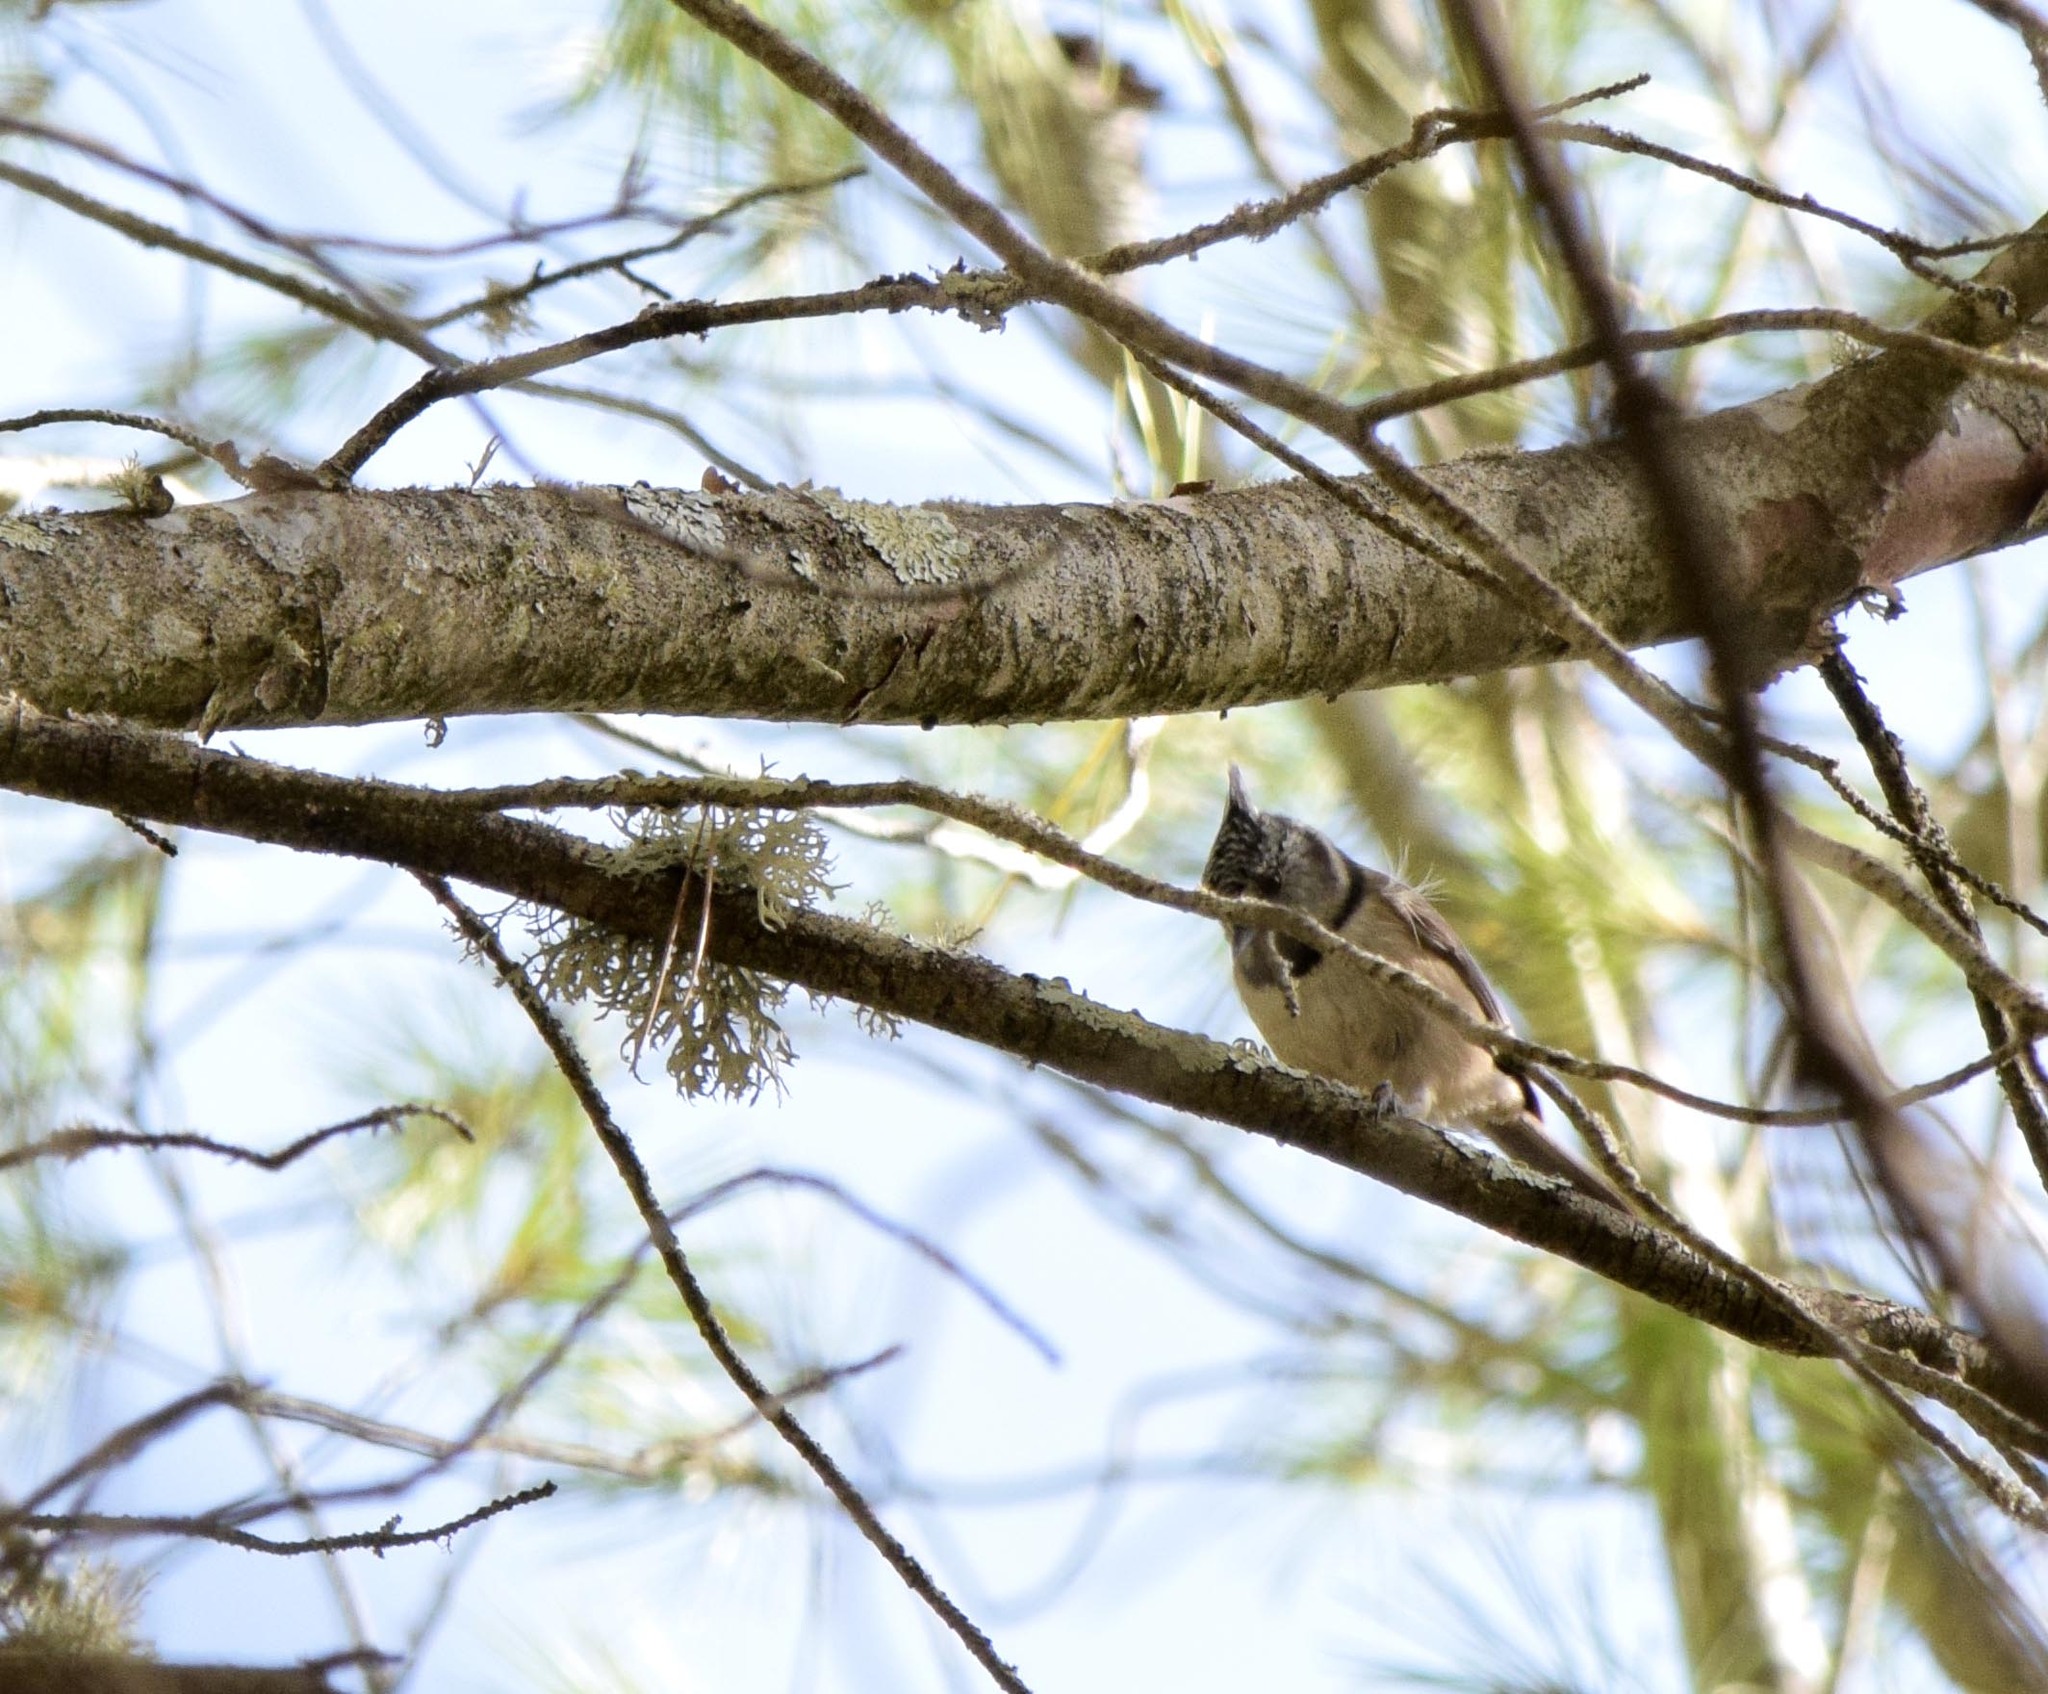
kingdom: Animalia
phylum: Chordata
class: Aves
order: Passeriformes
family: Paridae
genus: Lophophanes
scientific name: Lophophanes cristatus
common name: European crested tit
